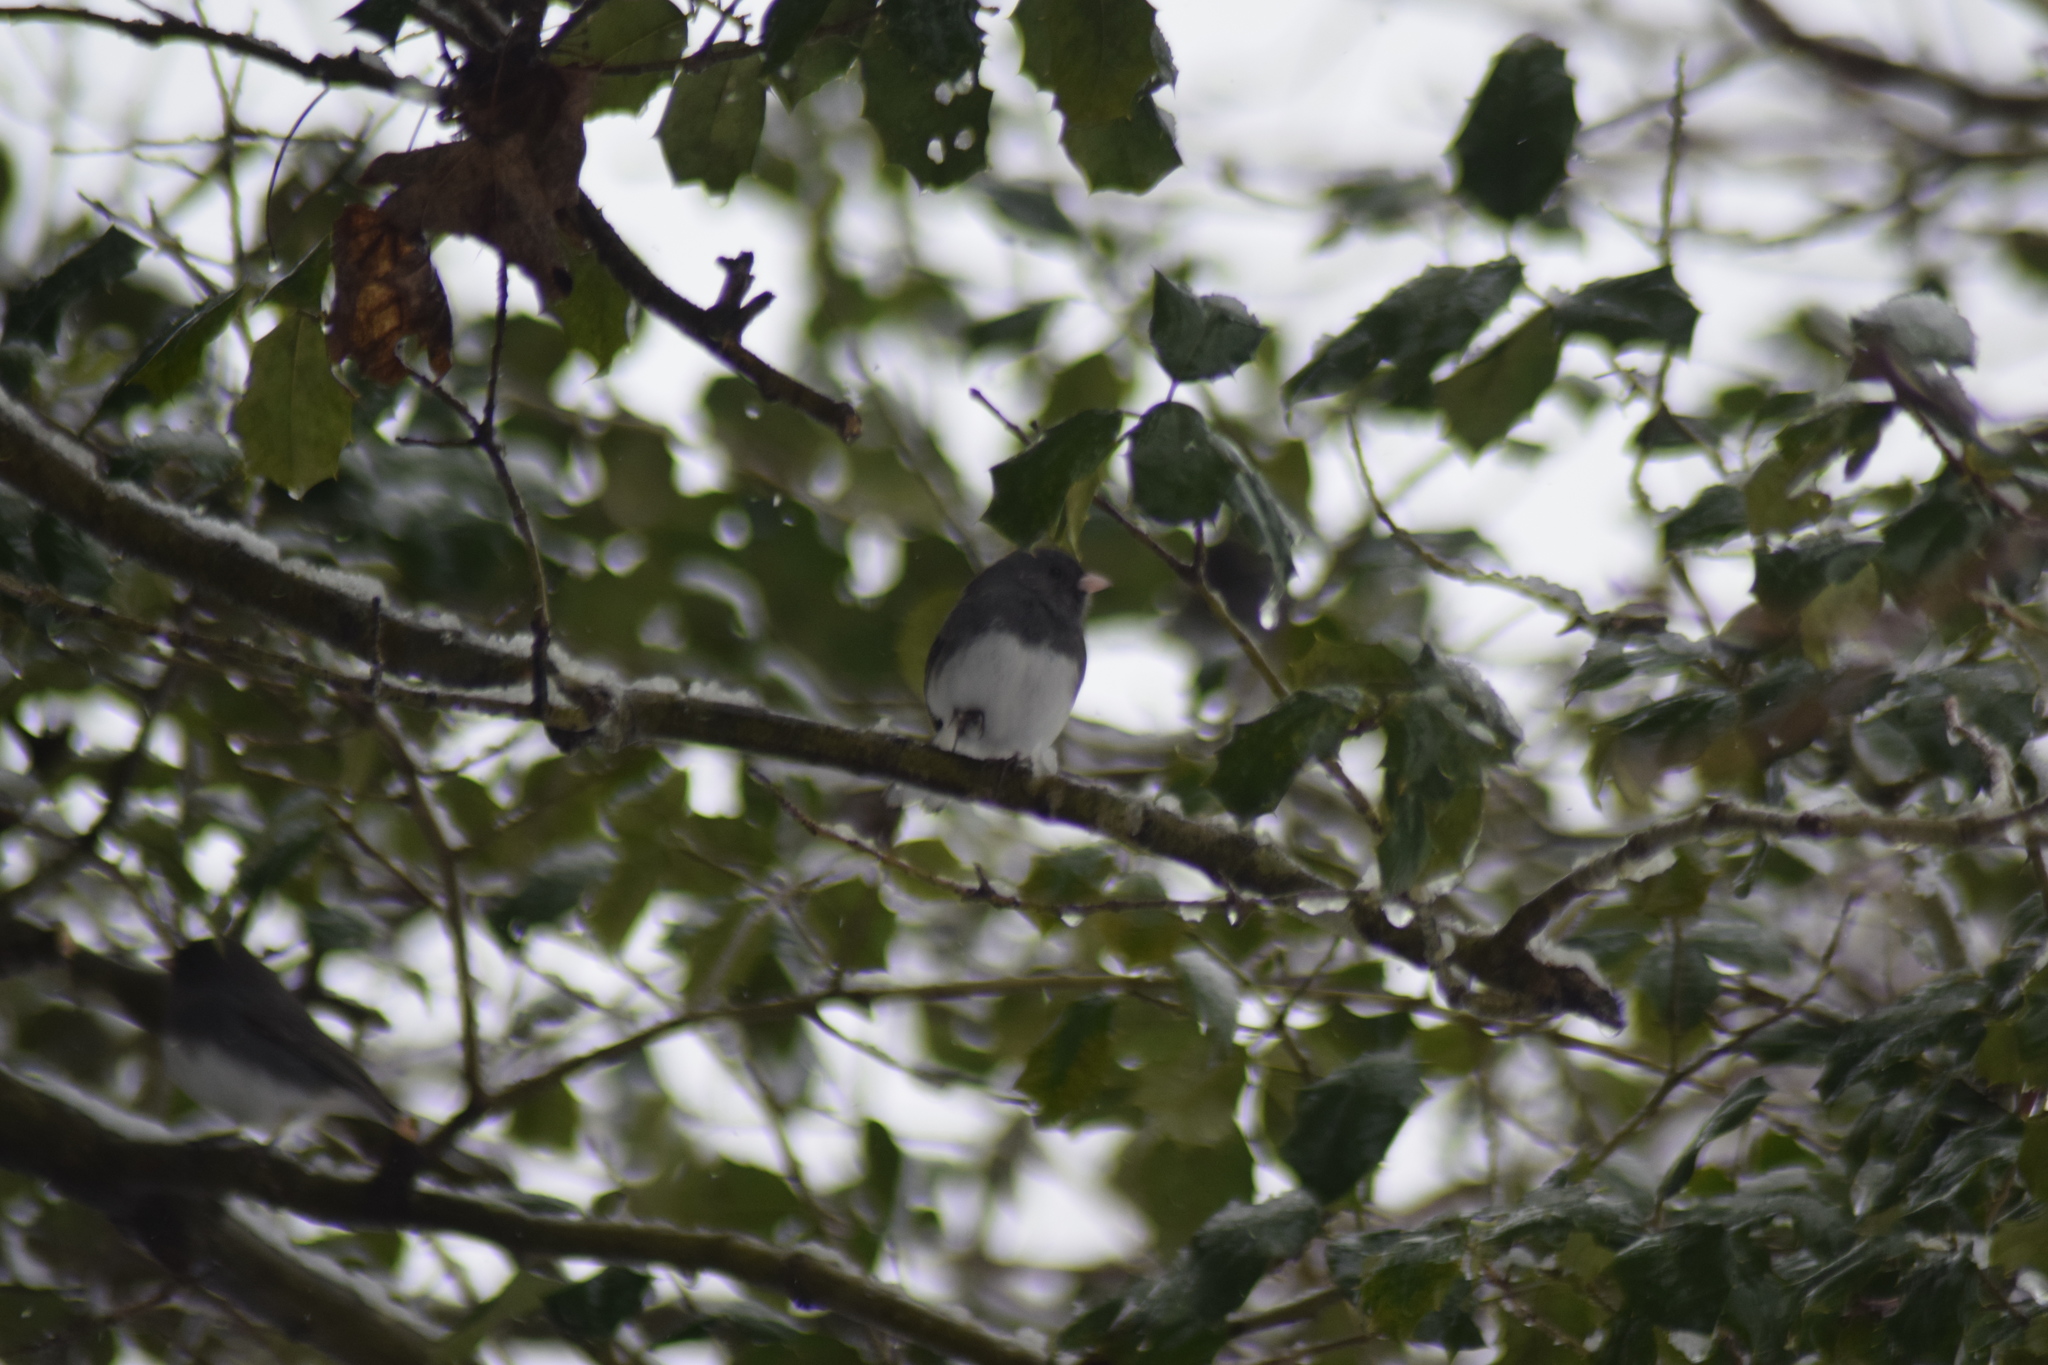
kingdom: Animalia
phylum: Chordata
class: Aves
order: Passeriformes
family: Passerellidae
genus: Junco
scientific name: Junco hyemalis
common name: Dark-eyed junco
